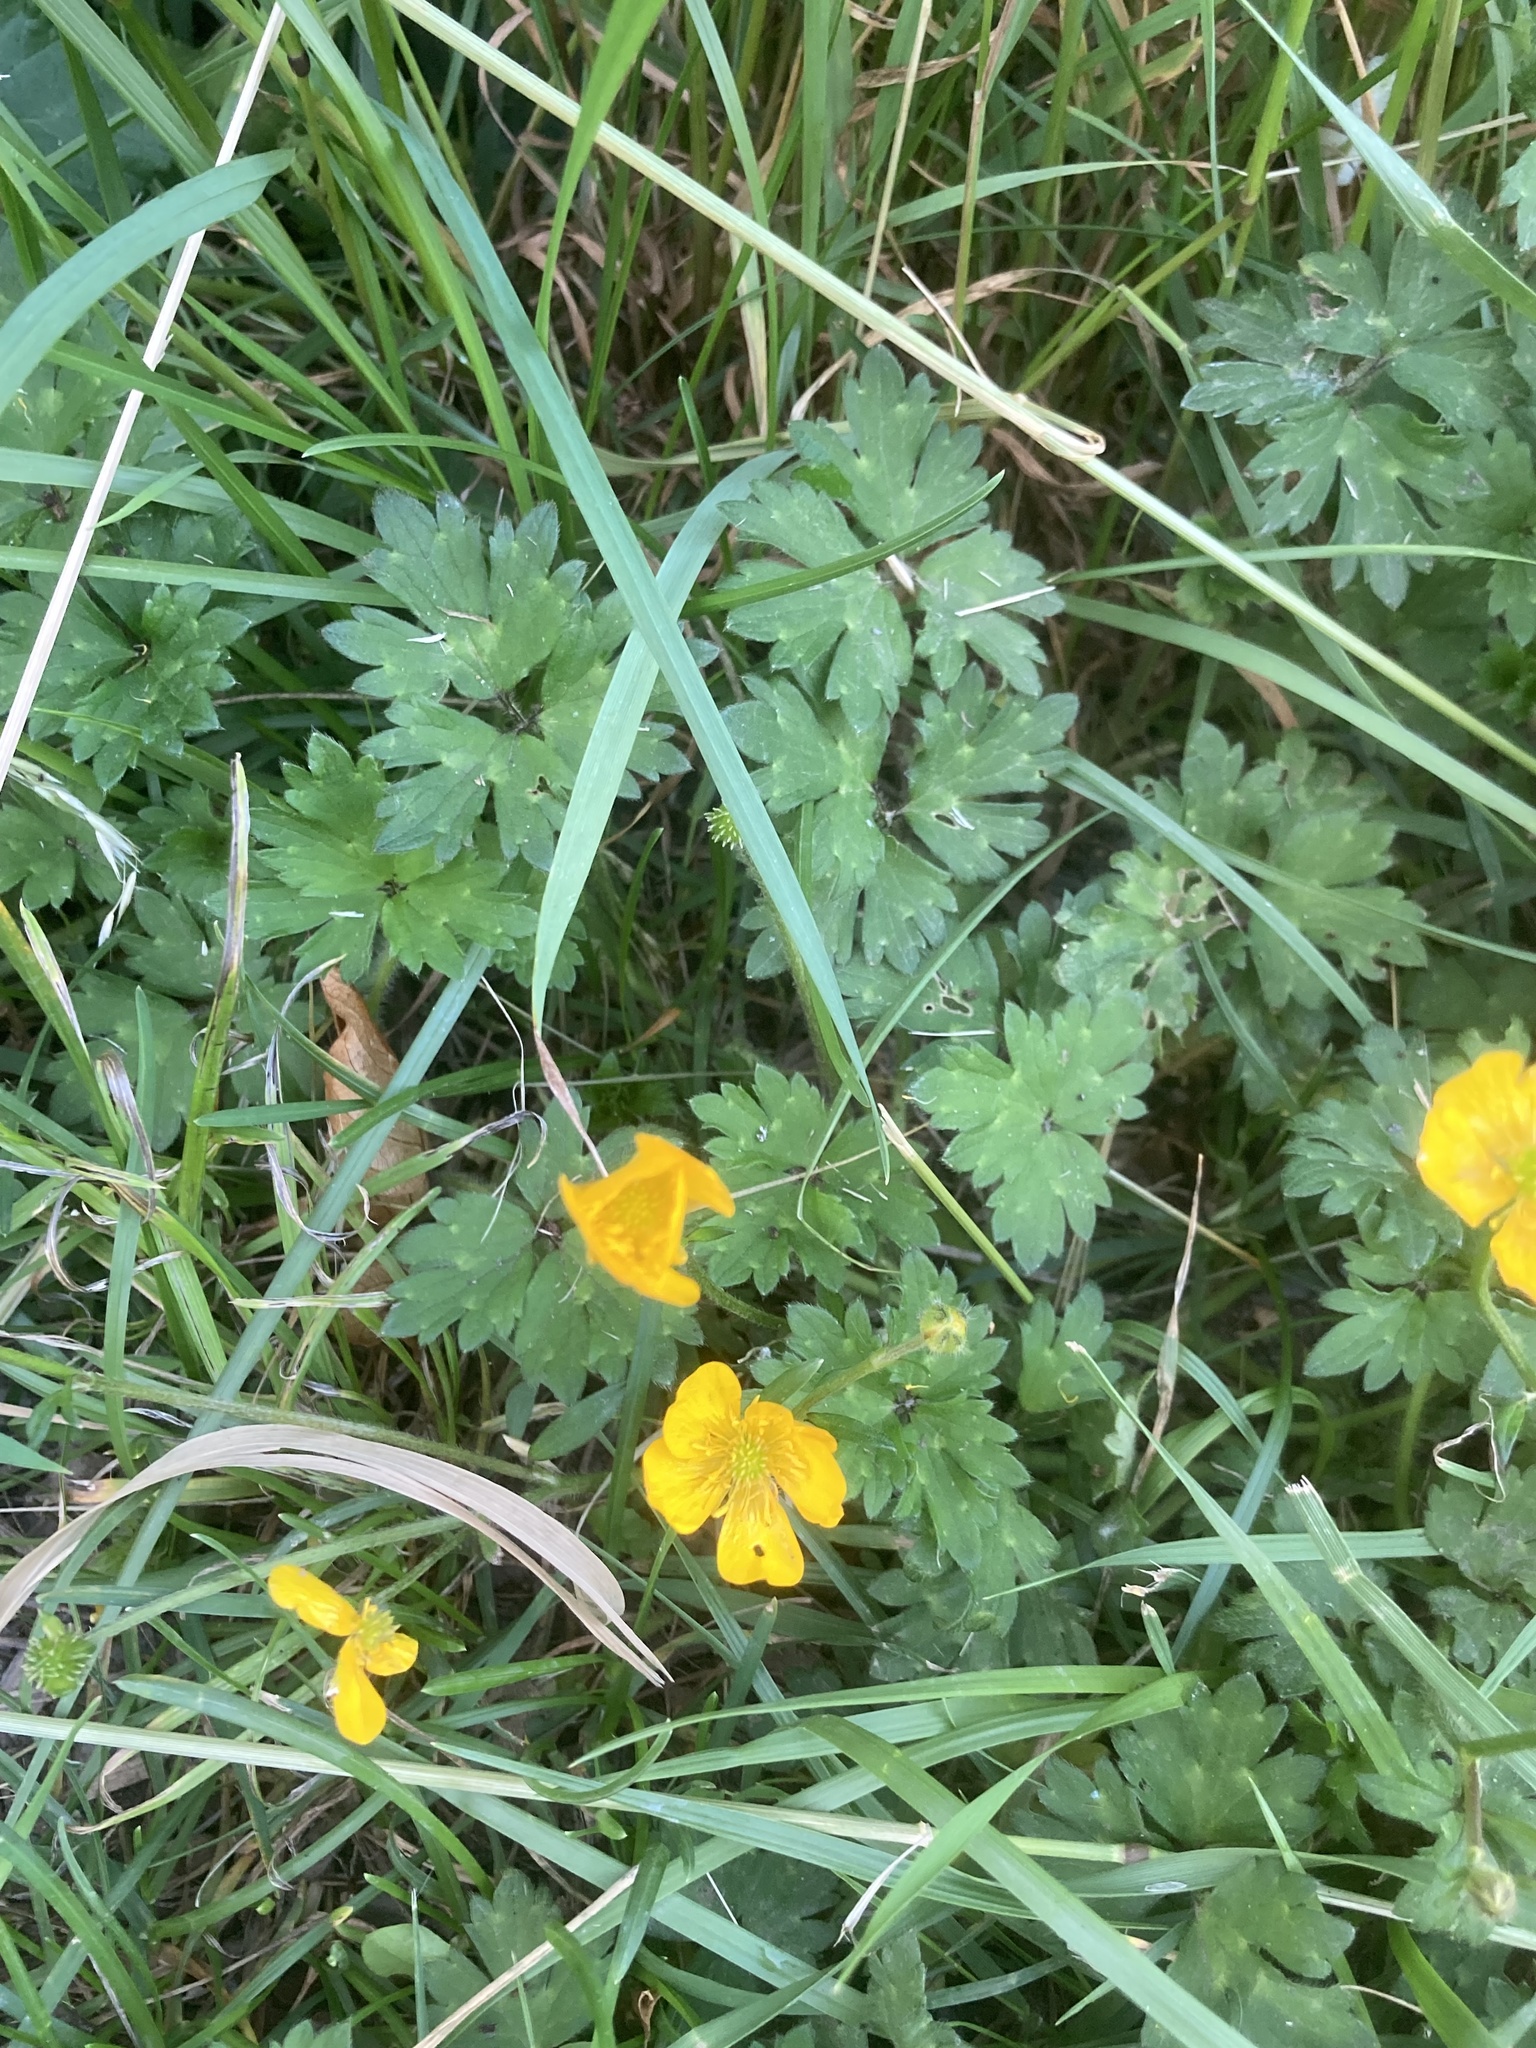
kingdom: Plantae
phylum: Tracheophyta
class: Magnoliopsida
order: Ranunculales
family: Ranunculaceae
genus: Ranunculus
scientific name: Ranunculus repens
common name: Creeping buttercup
